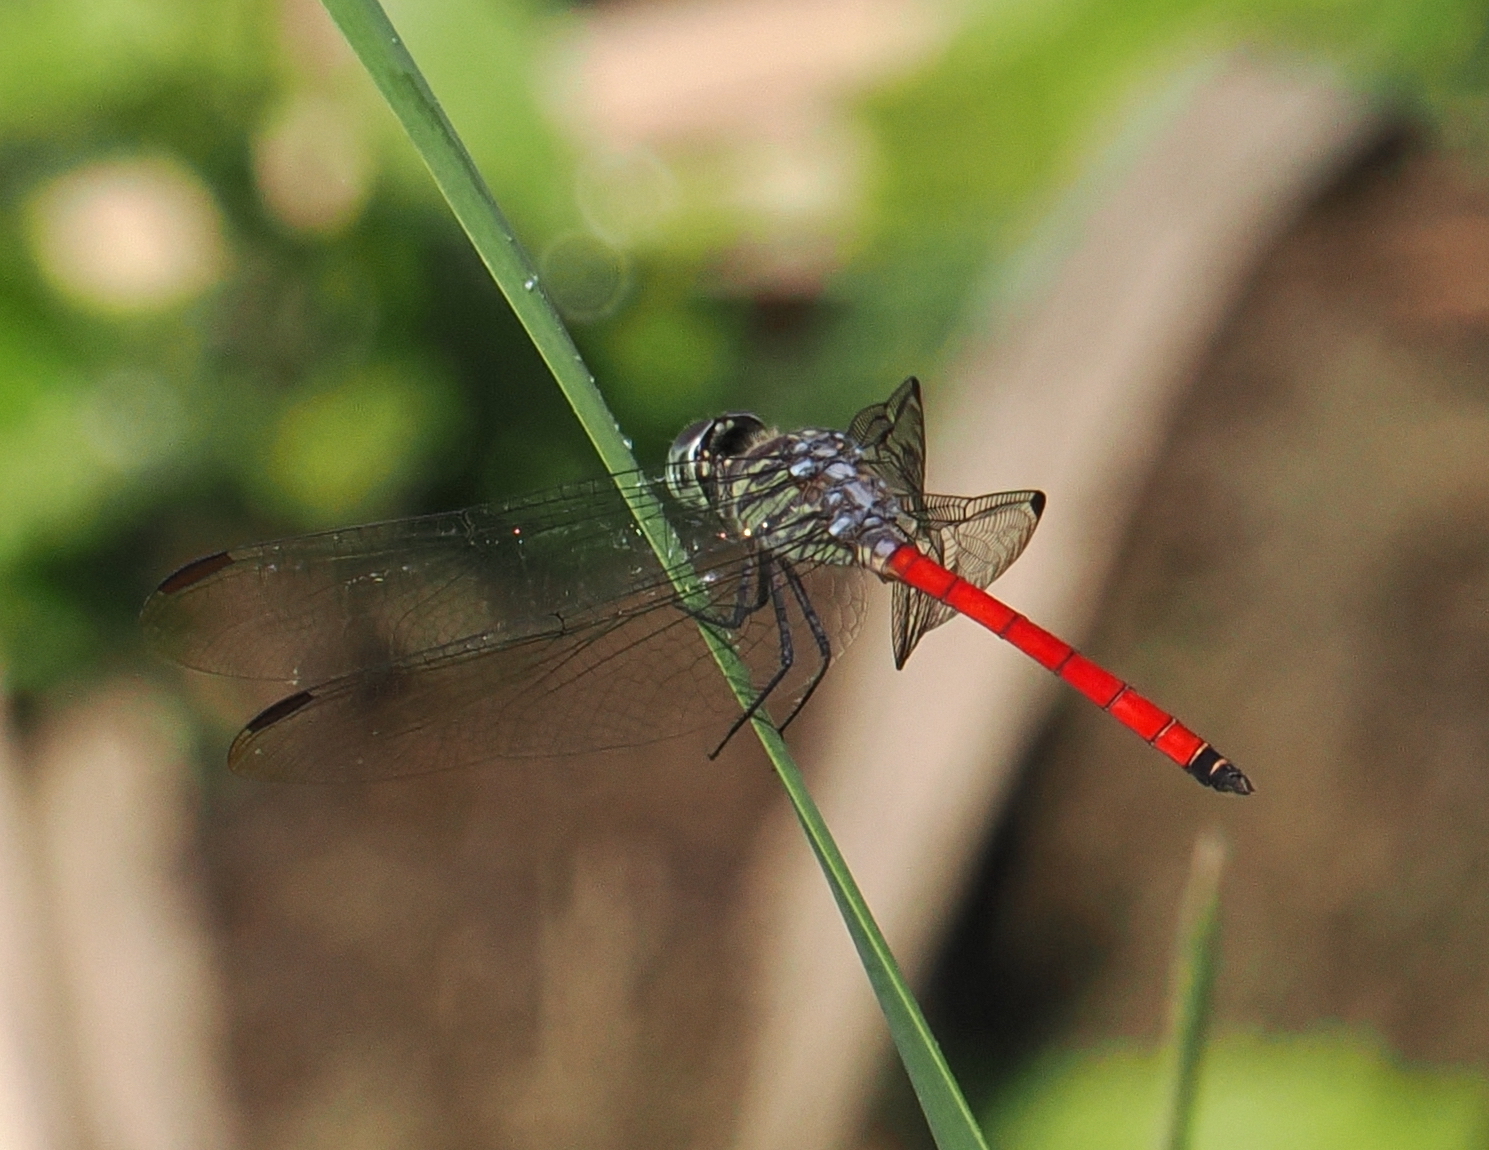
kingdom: Animalia
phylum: Arthropoda
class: Insecta
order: Odonata
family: Libellulidae
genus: Lathrecista
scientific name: Lathrecista asiatica
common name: Scarlet grenadier
